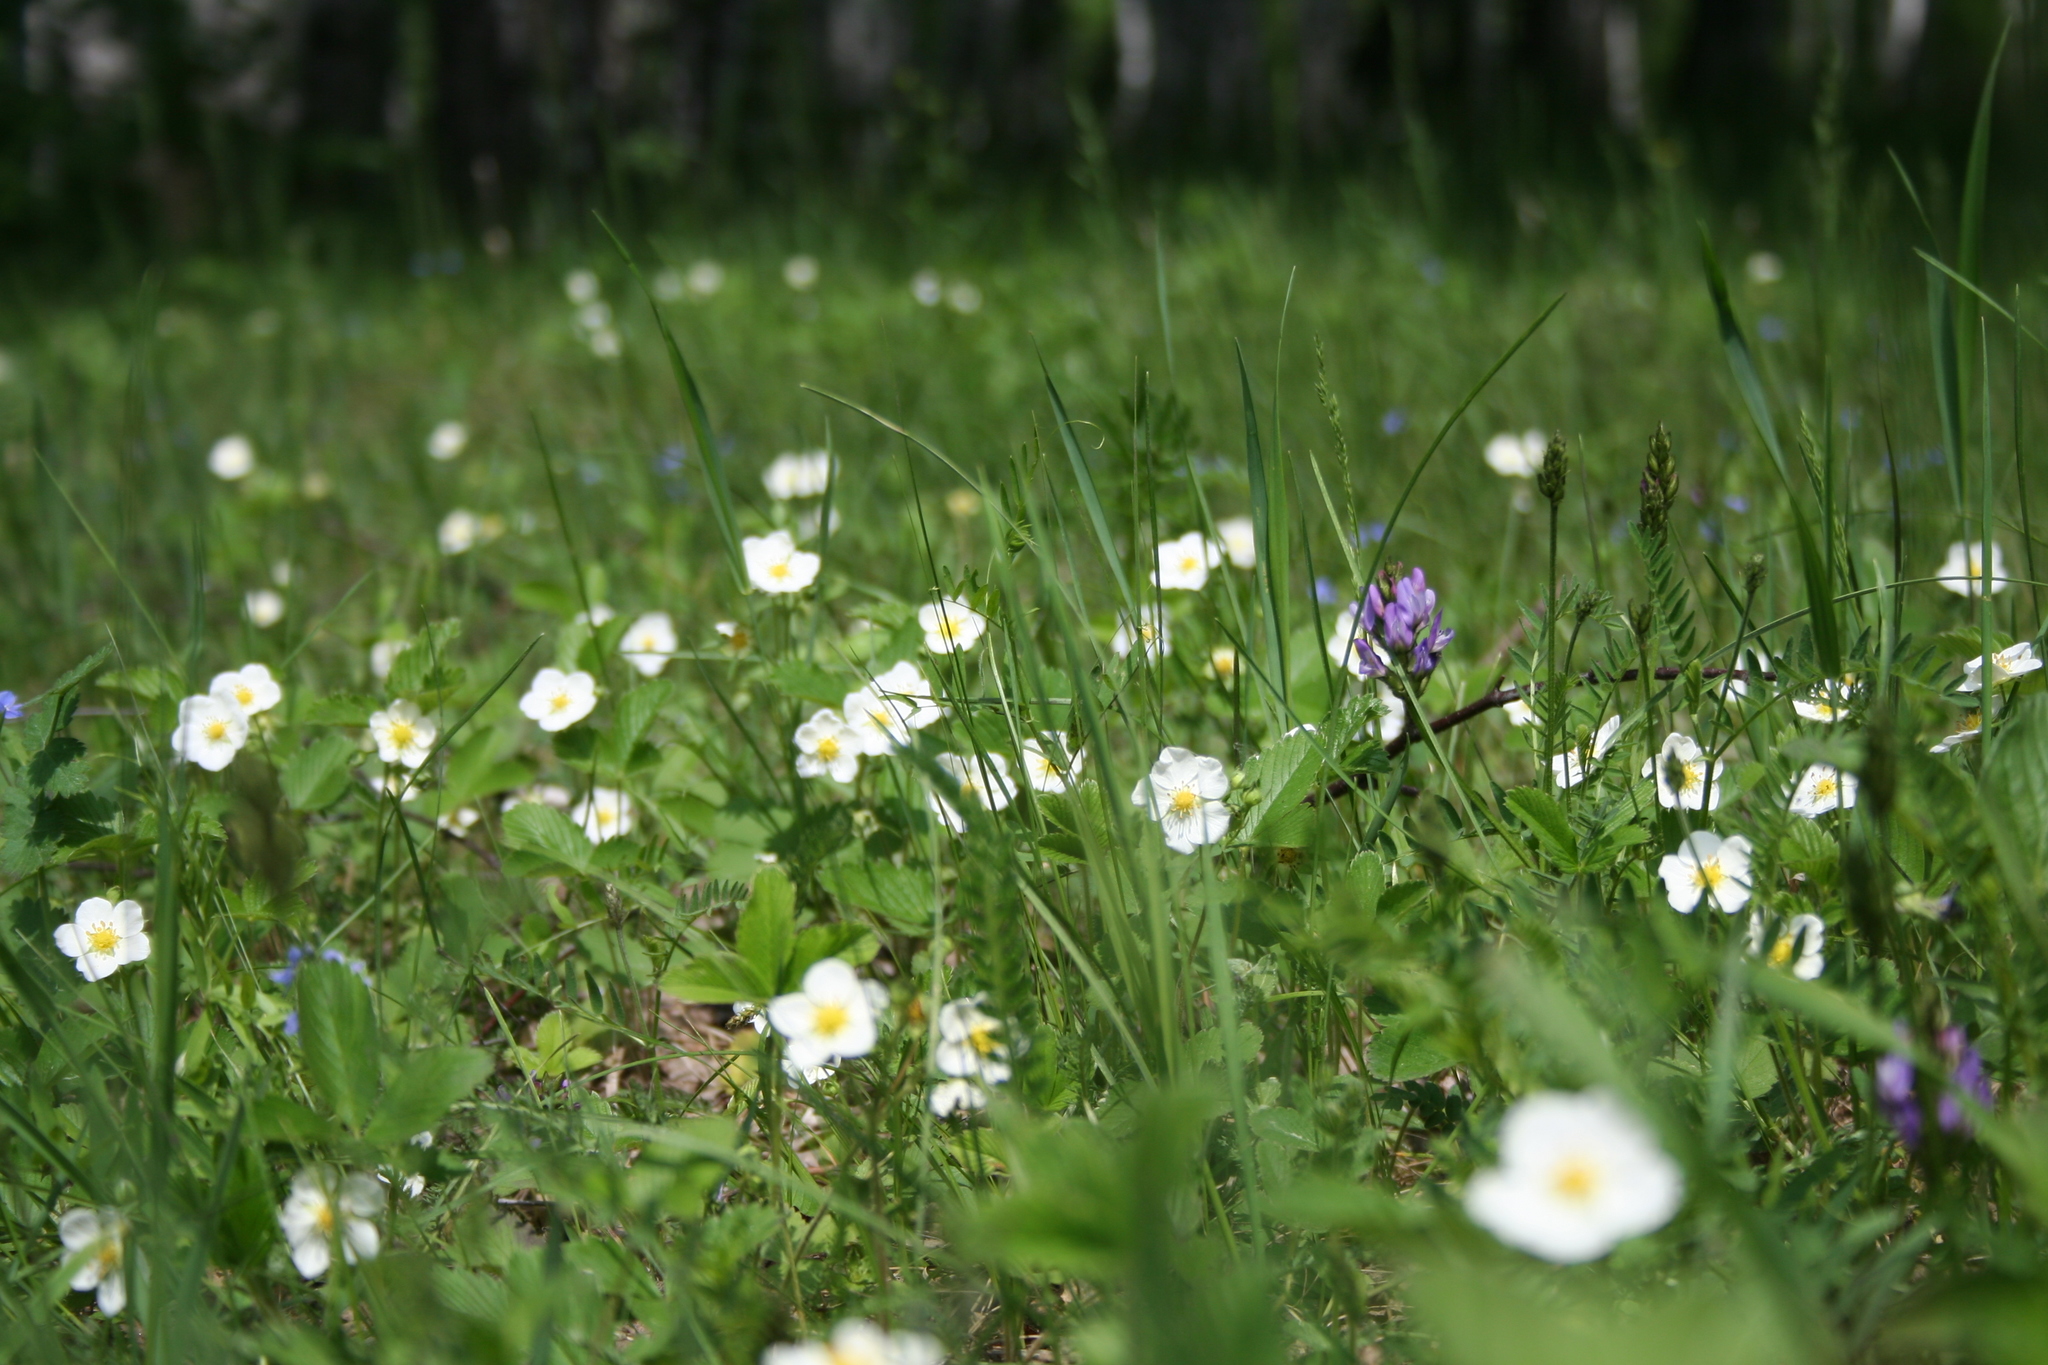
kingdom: Plantae
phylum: Tracheophyta
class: Magnoliopsida
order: Rosales
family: Rosaceae
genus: Fragaria
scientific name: Fragaria viridis
